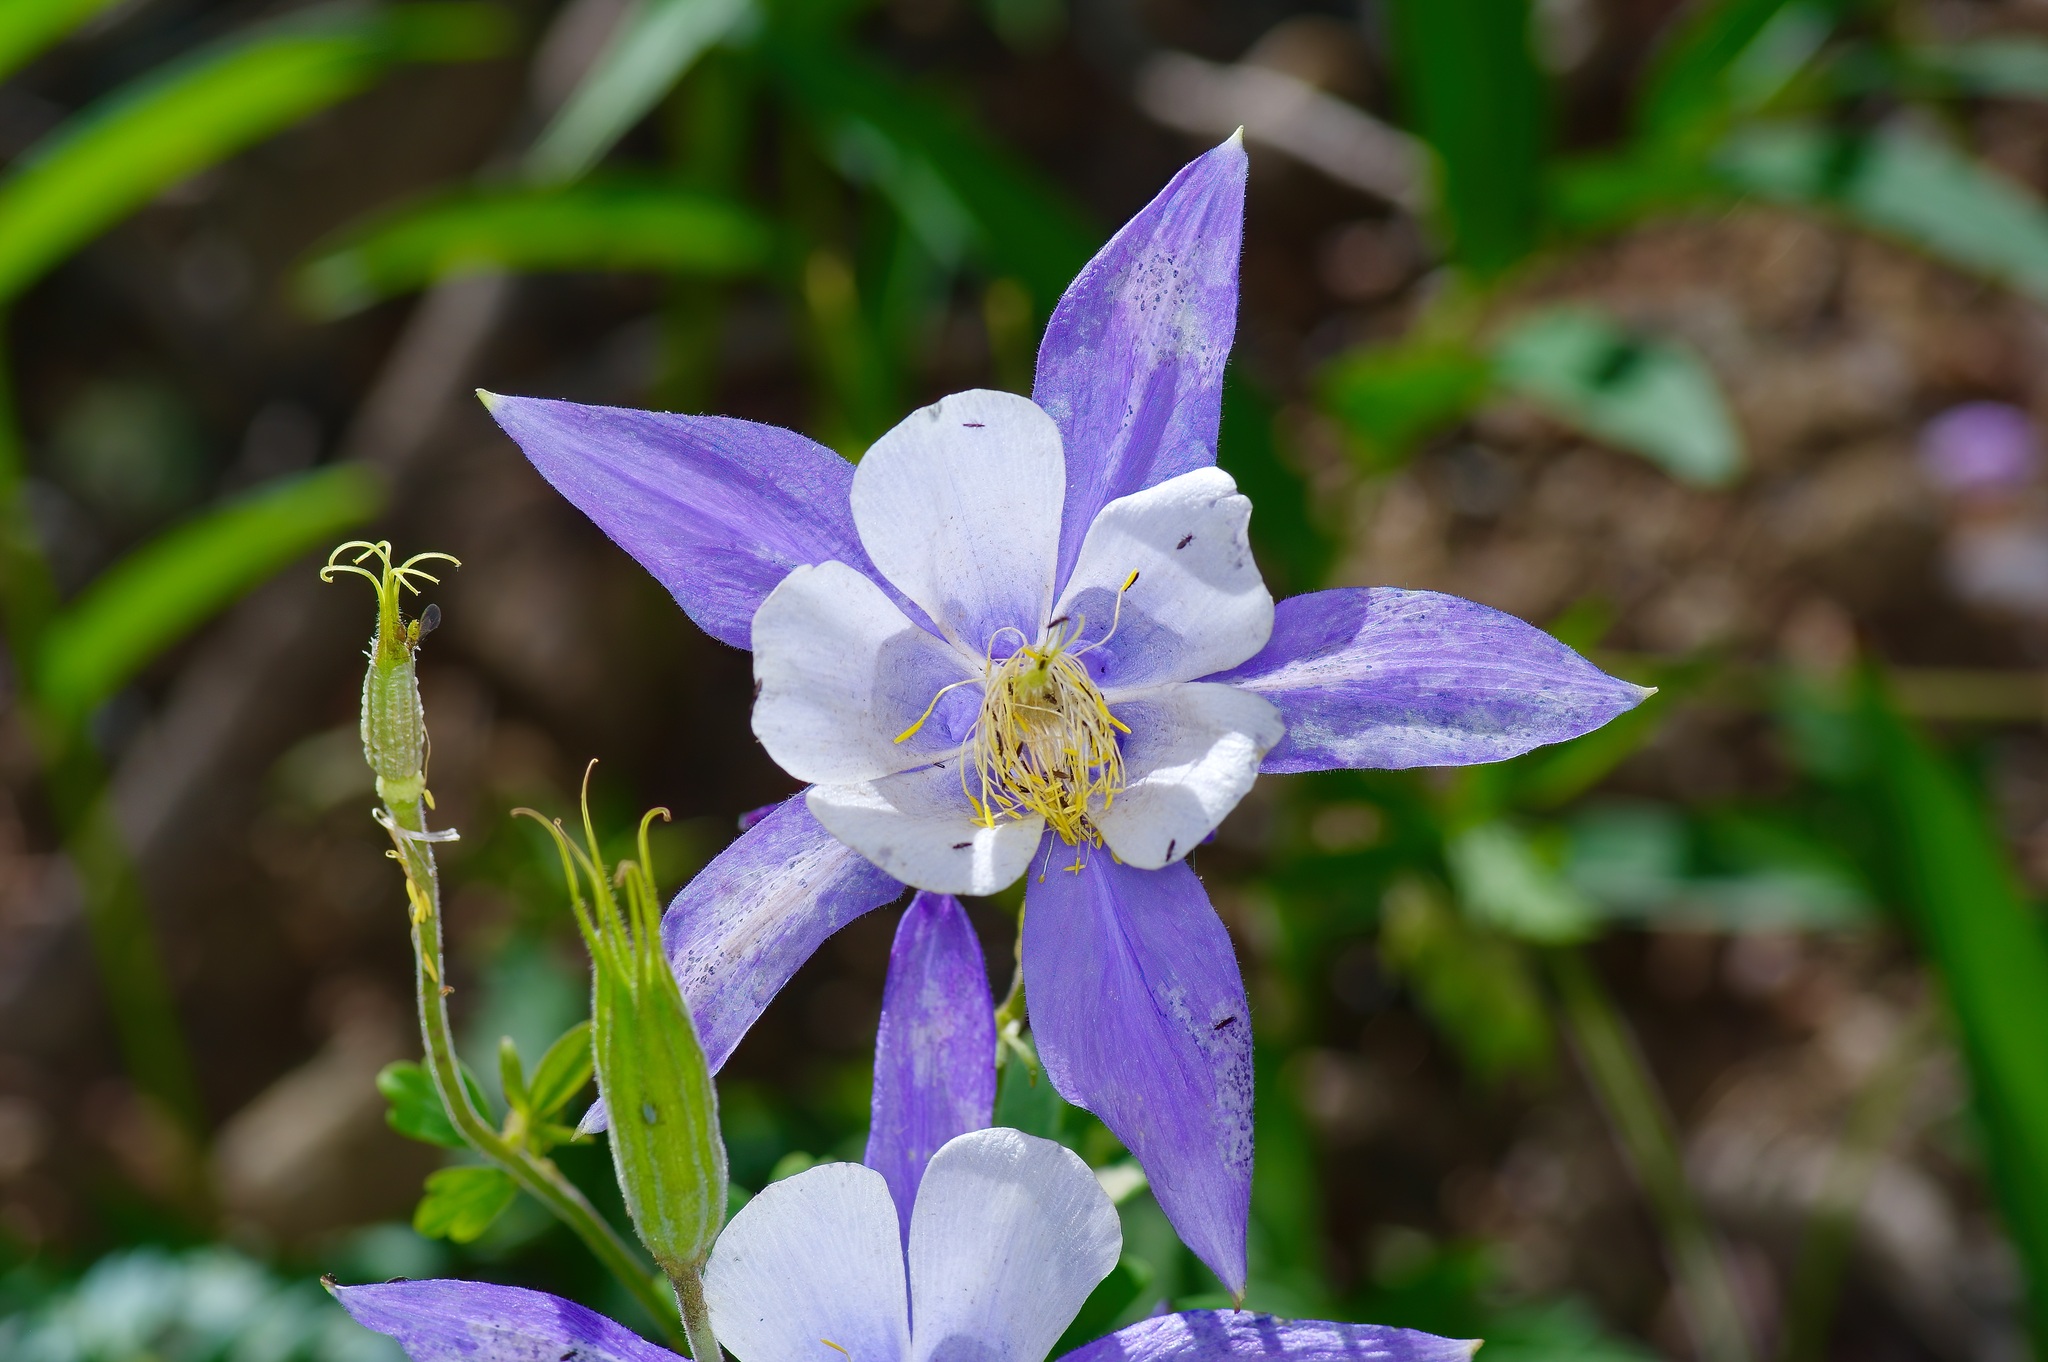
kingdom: Plantae
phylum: Tracheophyta
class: Magnoliopsida
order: Ranunculales
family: Ranunculaceae
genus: Aquilegia
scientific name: Aquilegia coerulea
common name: Rocky mountain columbine
